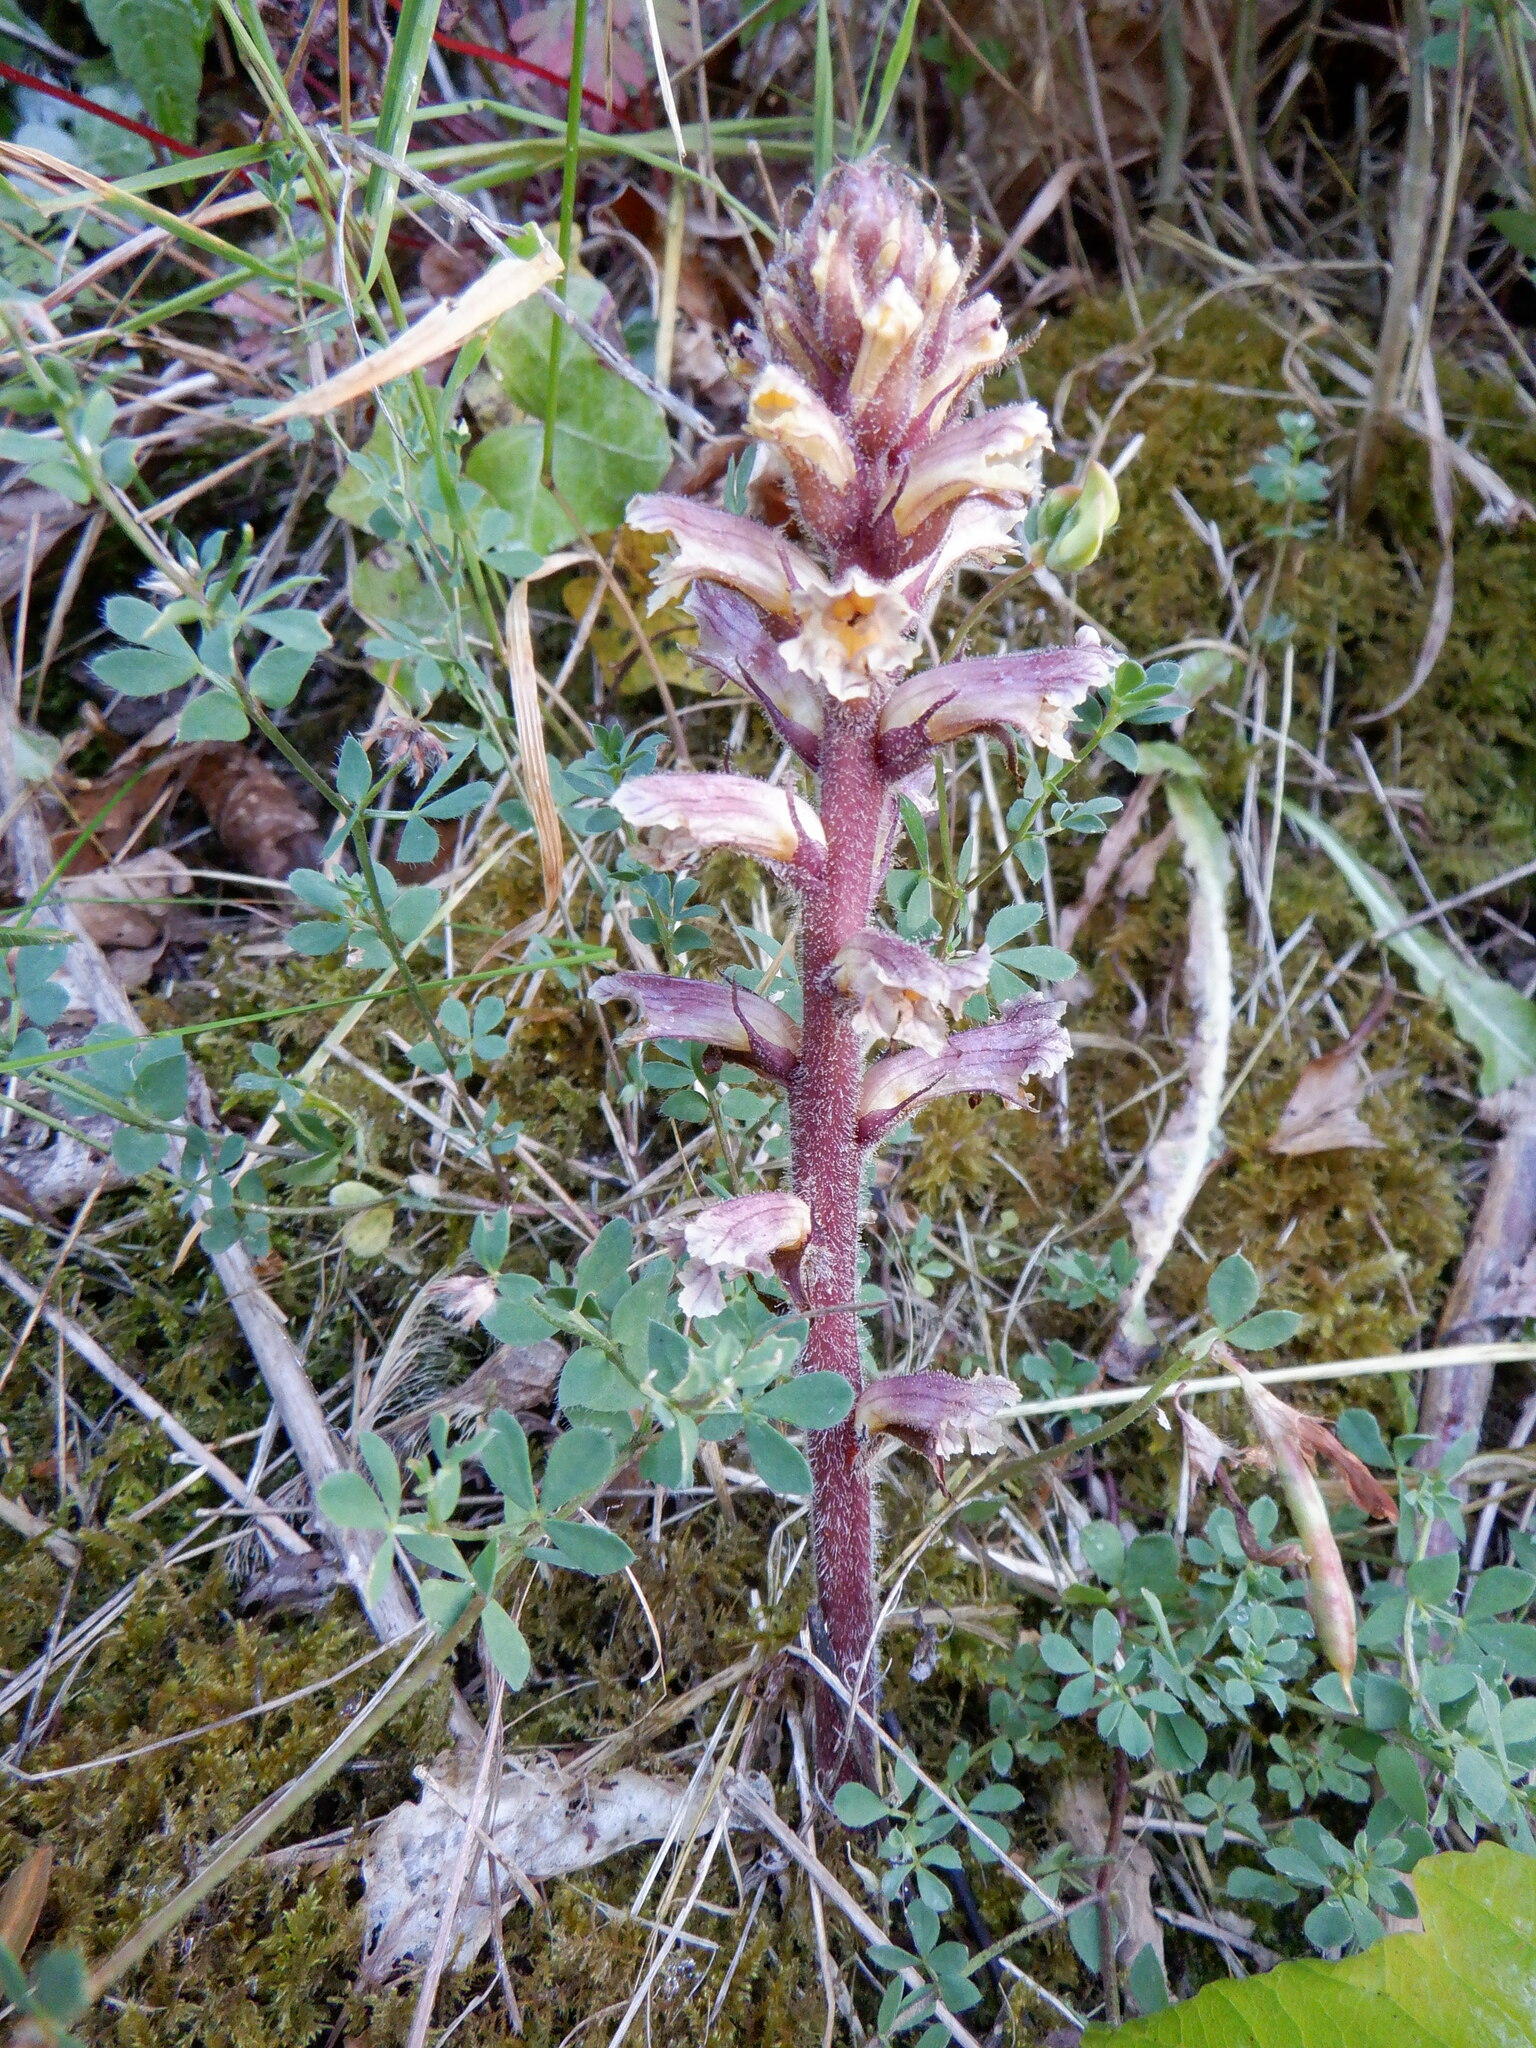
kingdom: Plantae
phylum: Tracheophyta
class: Magnoliopsida
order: Lamiales
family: Orobanchaceae
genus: Orobanche
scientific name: Orobanche hederae
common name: Ivy broomrape
